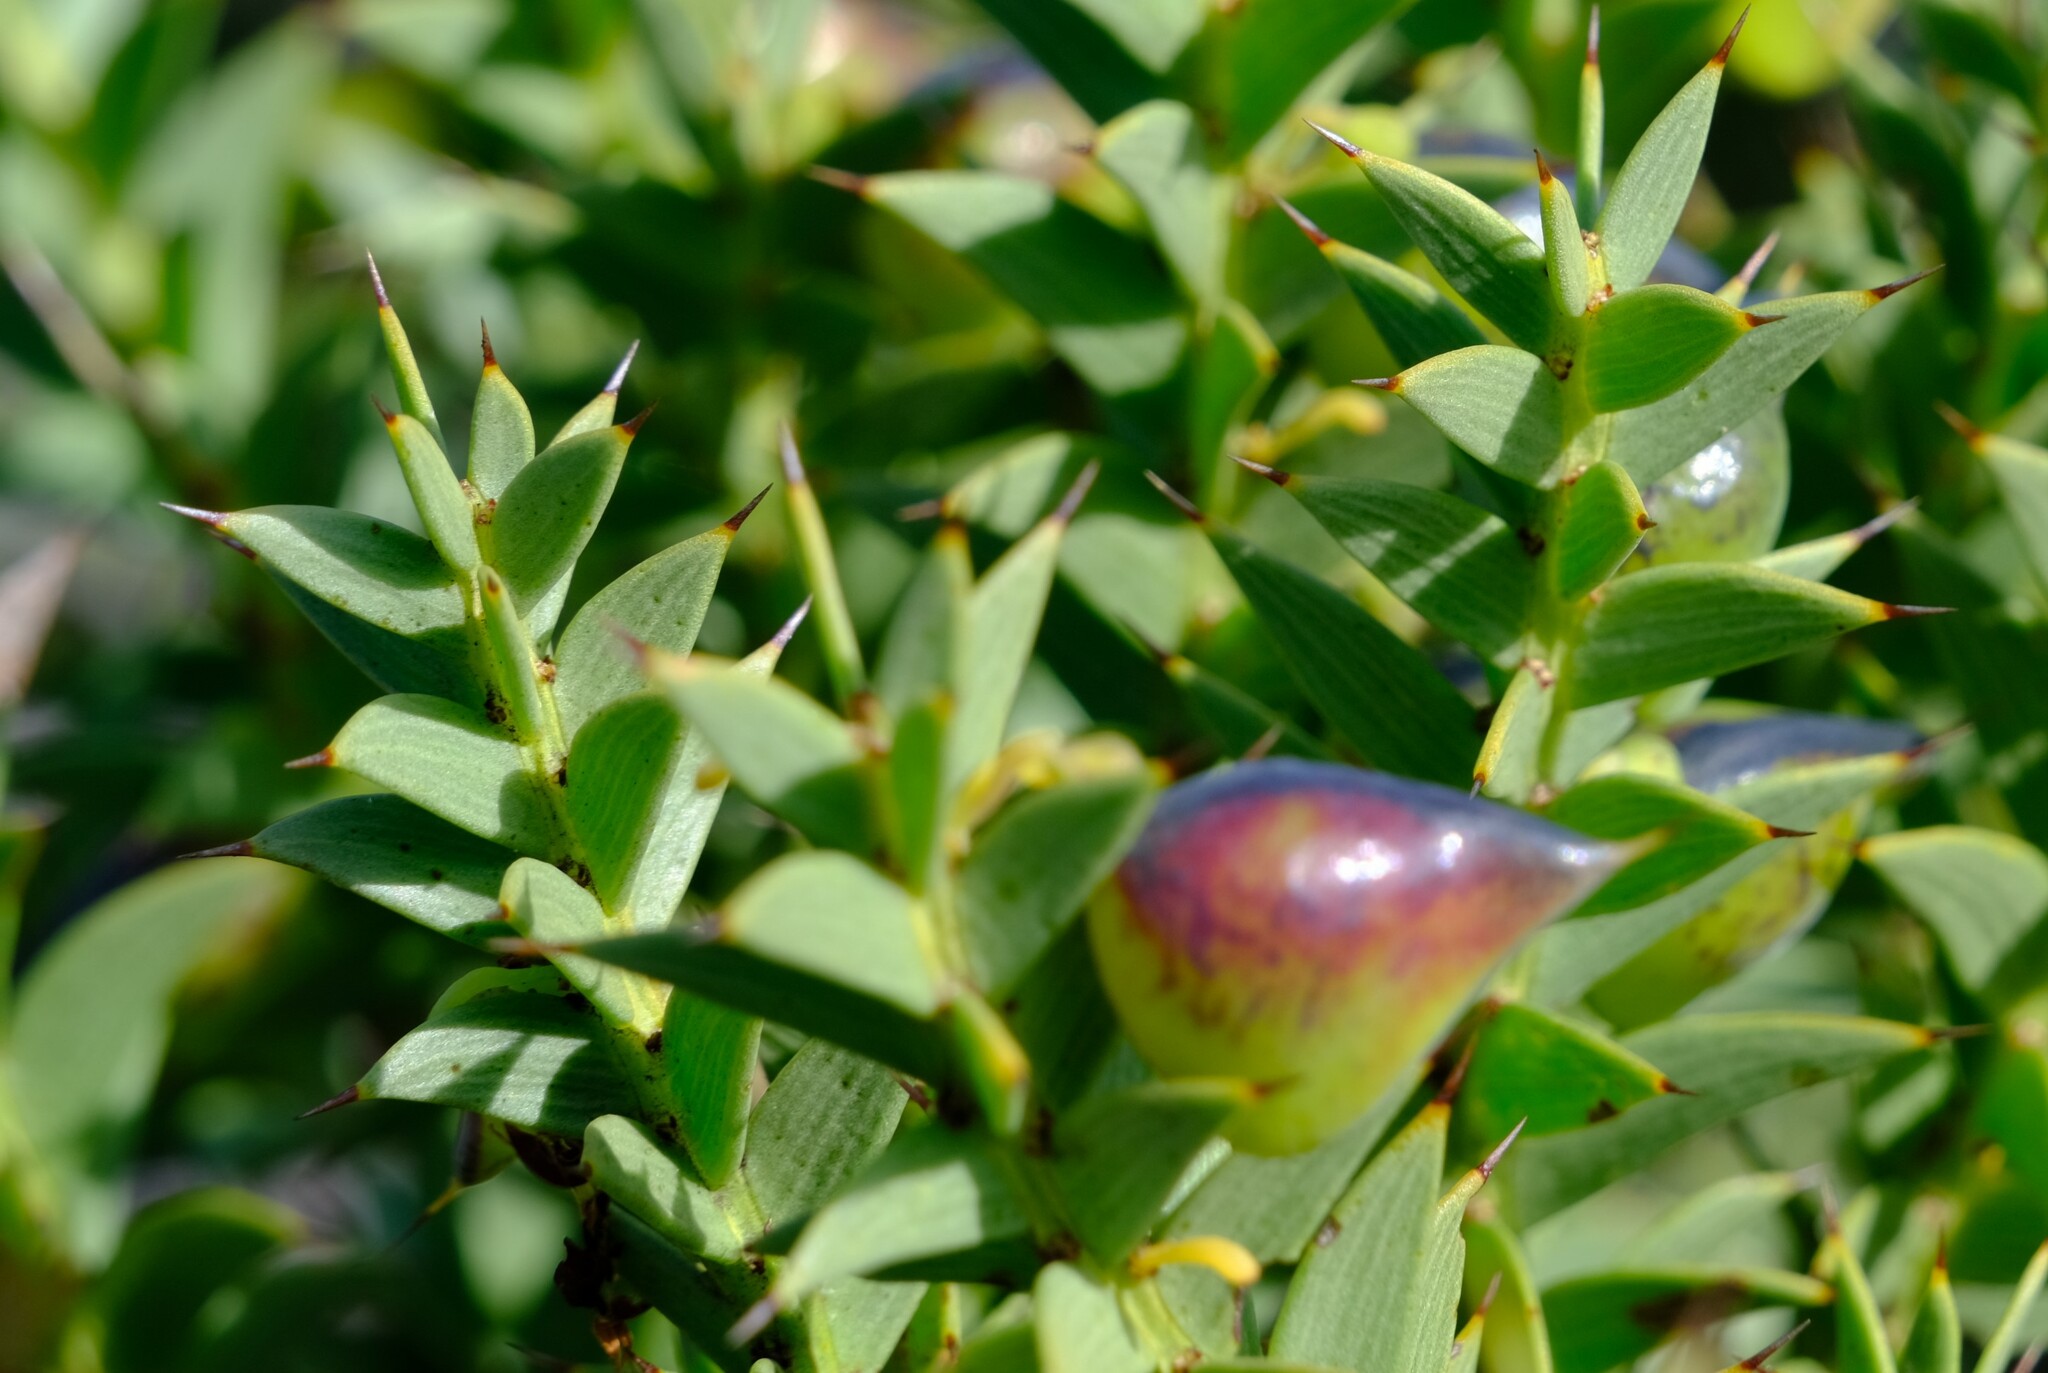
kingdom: Plantae
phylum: Tracheophyta
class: Magnoliopsida
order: Fabales
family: Fabaceae
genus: Daviesia
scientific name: Daviesia chapmanii
